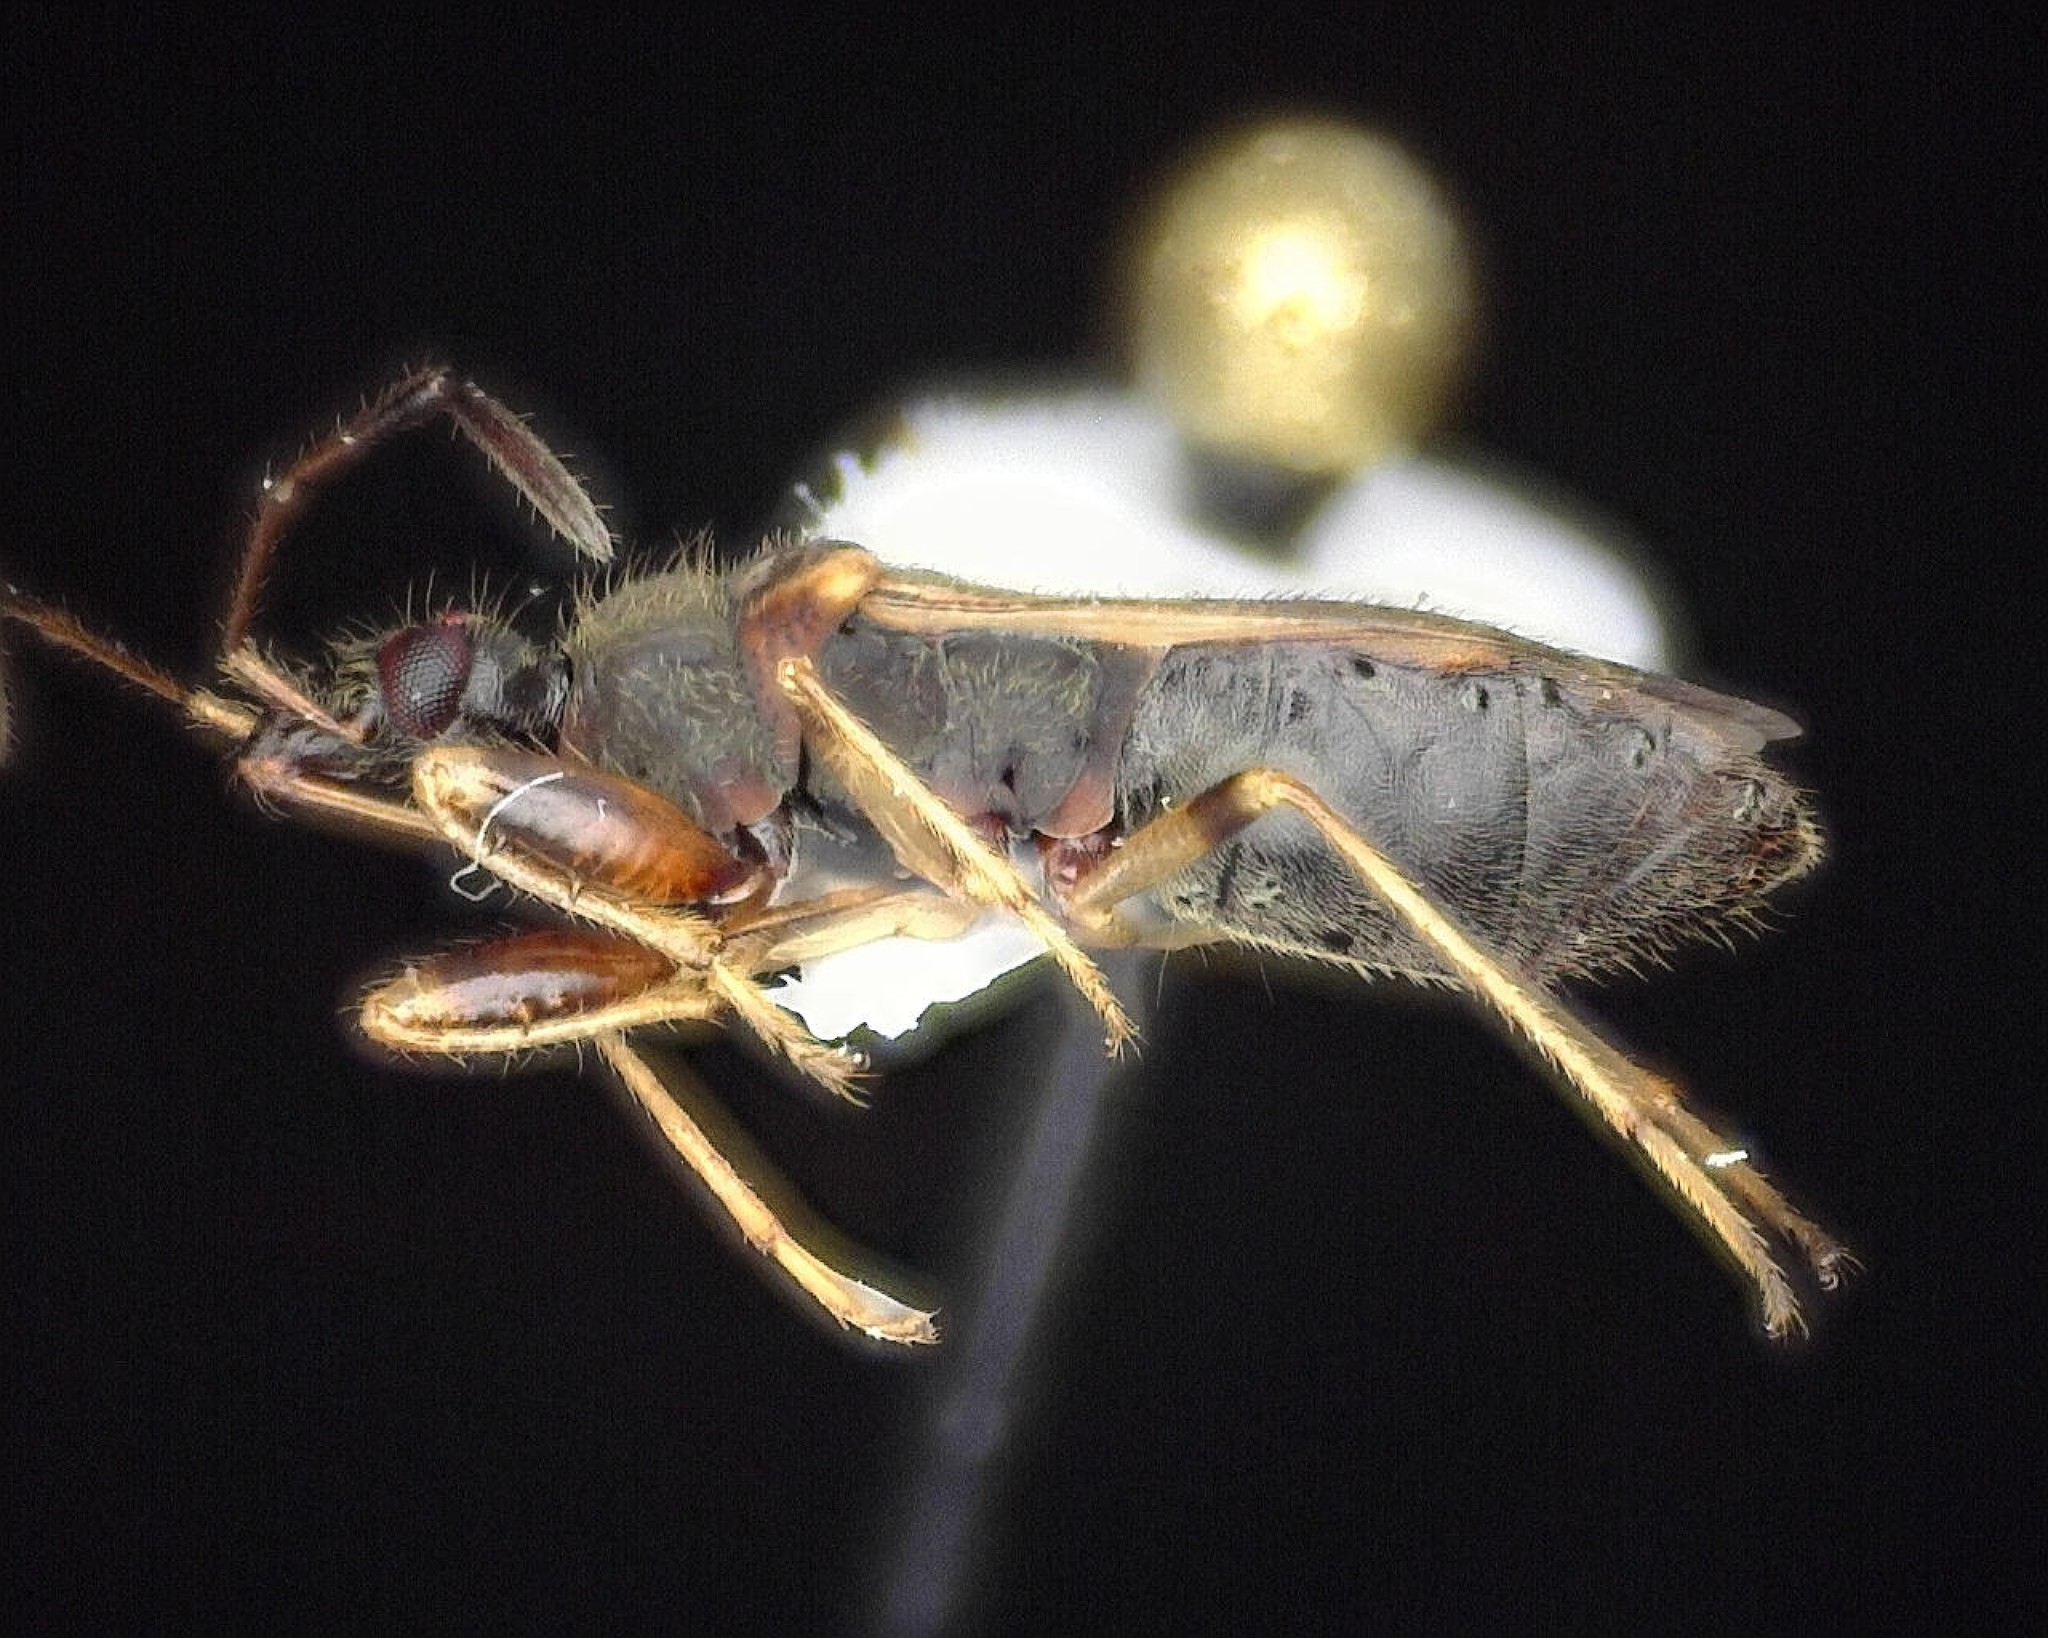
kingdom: Animalia
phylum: Arthropoda
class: Insecta
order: Hemiptera
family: Rhyparochromidae
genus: Heraeus
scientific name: Heraeus plebejus
